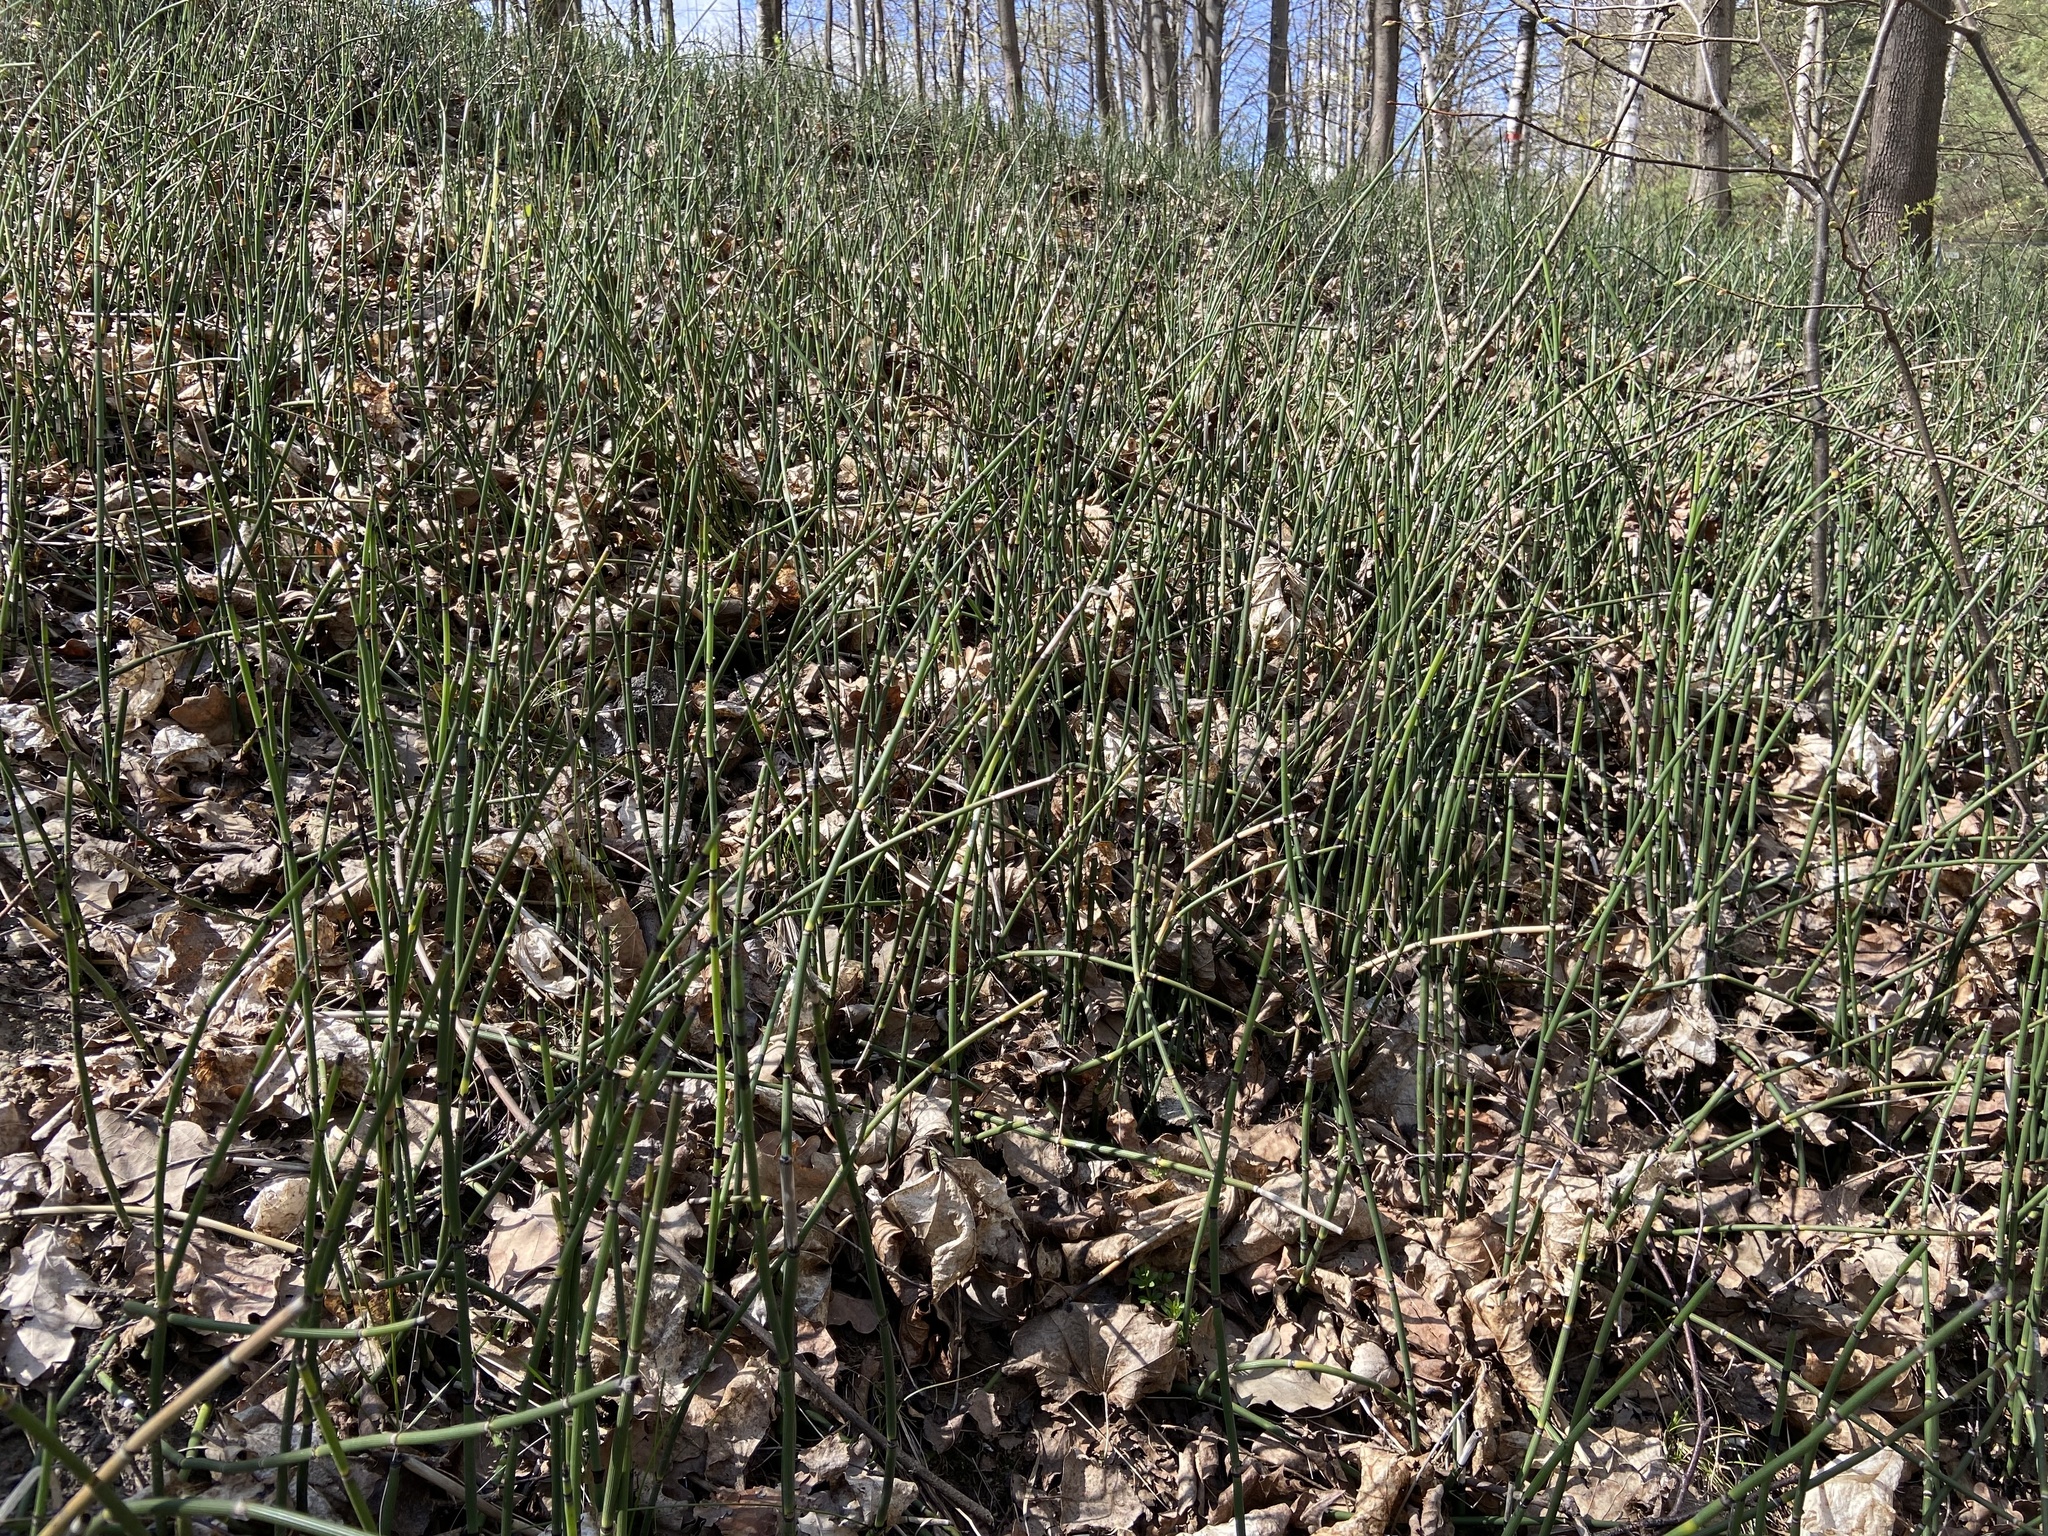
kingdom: Plantae
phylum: Tracheophyta
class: Polypodiopsida
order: Equisetales
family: Equisetaceae
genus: Equisetum
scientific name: Equisetum hyemale
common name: Rough horsetail
